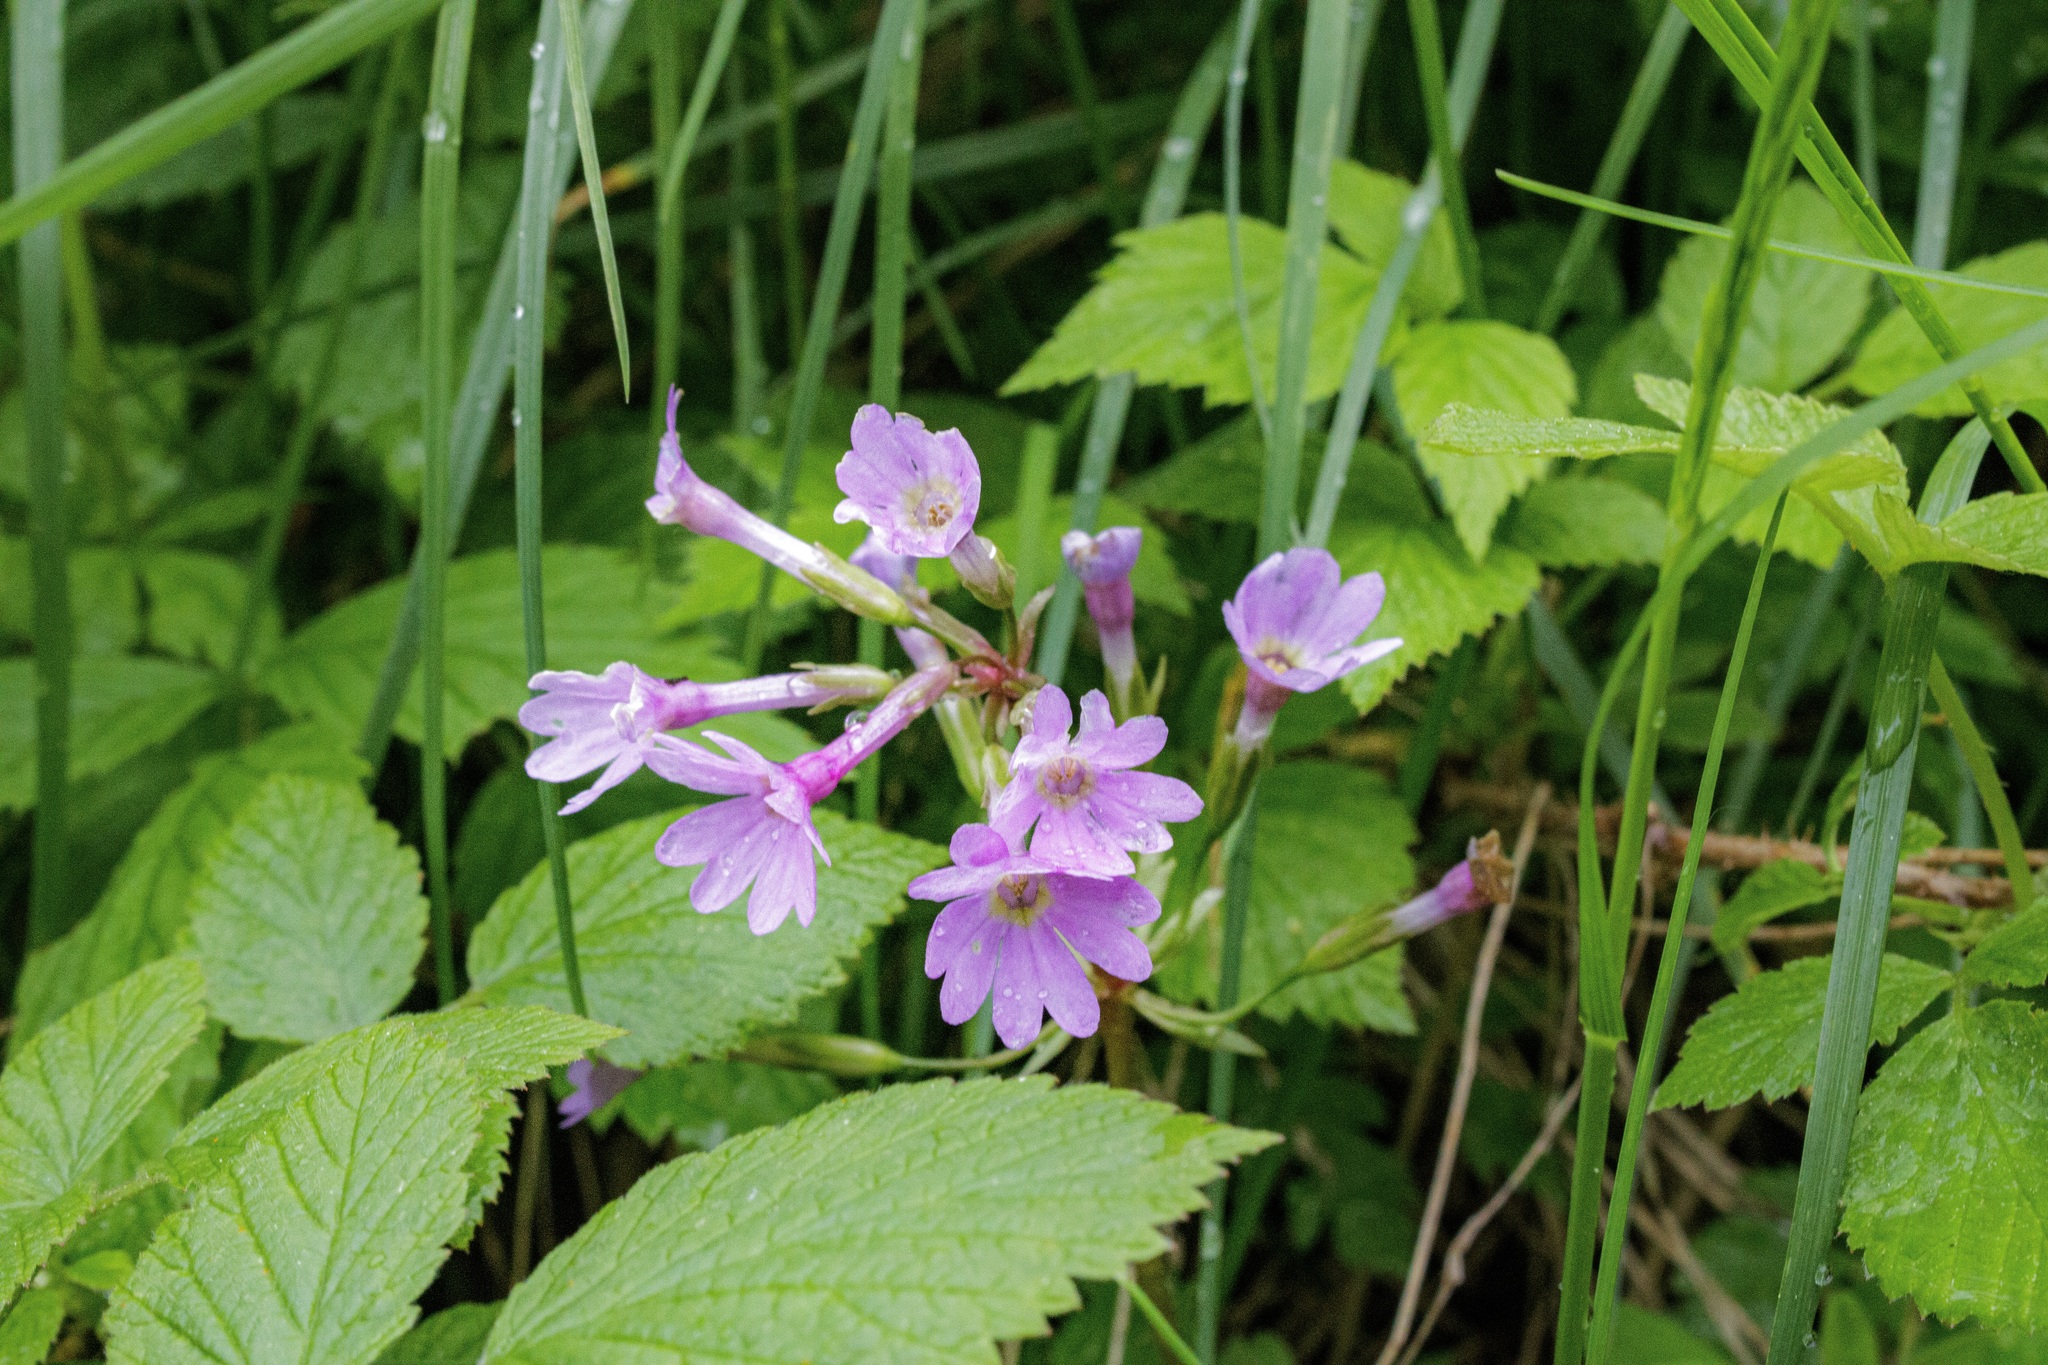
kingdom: Plantae
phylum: Tracheophyta
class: Magnoliopsida
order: Ericales
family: Primulaceae
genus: Primula
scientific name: Primula kaufmanniana
